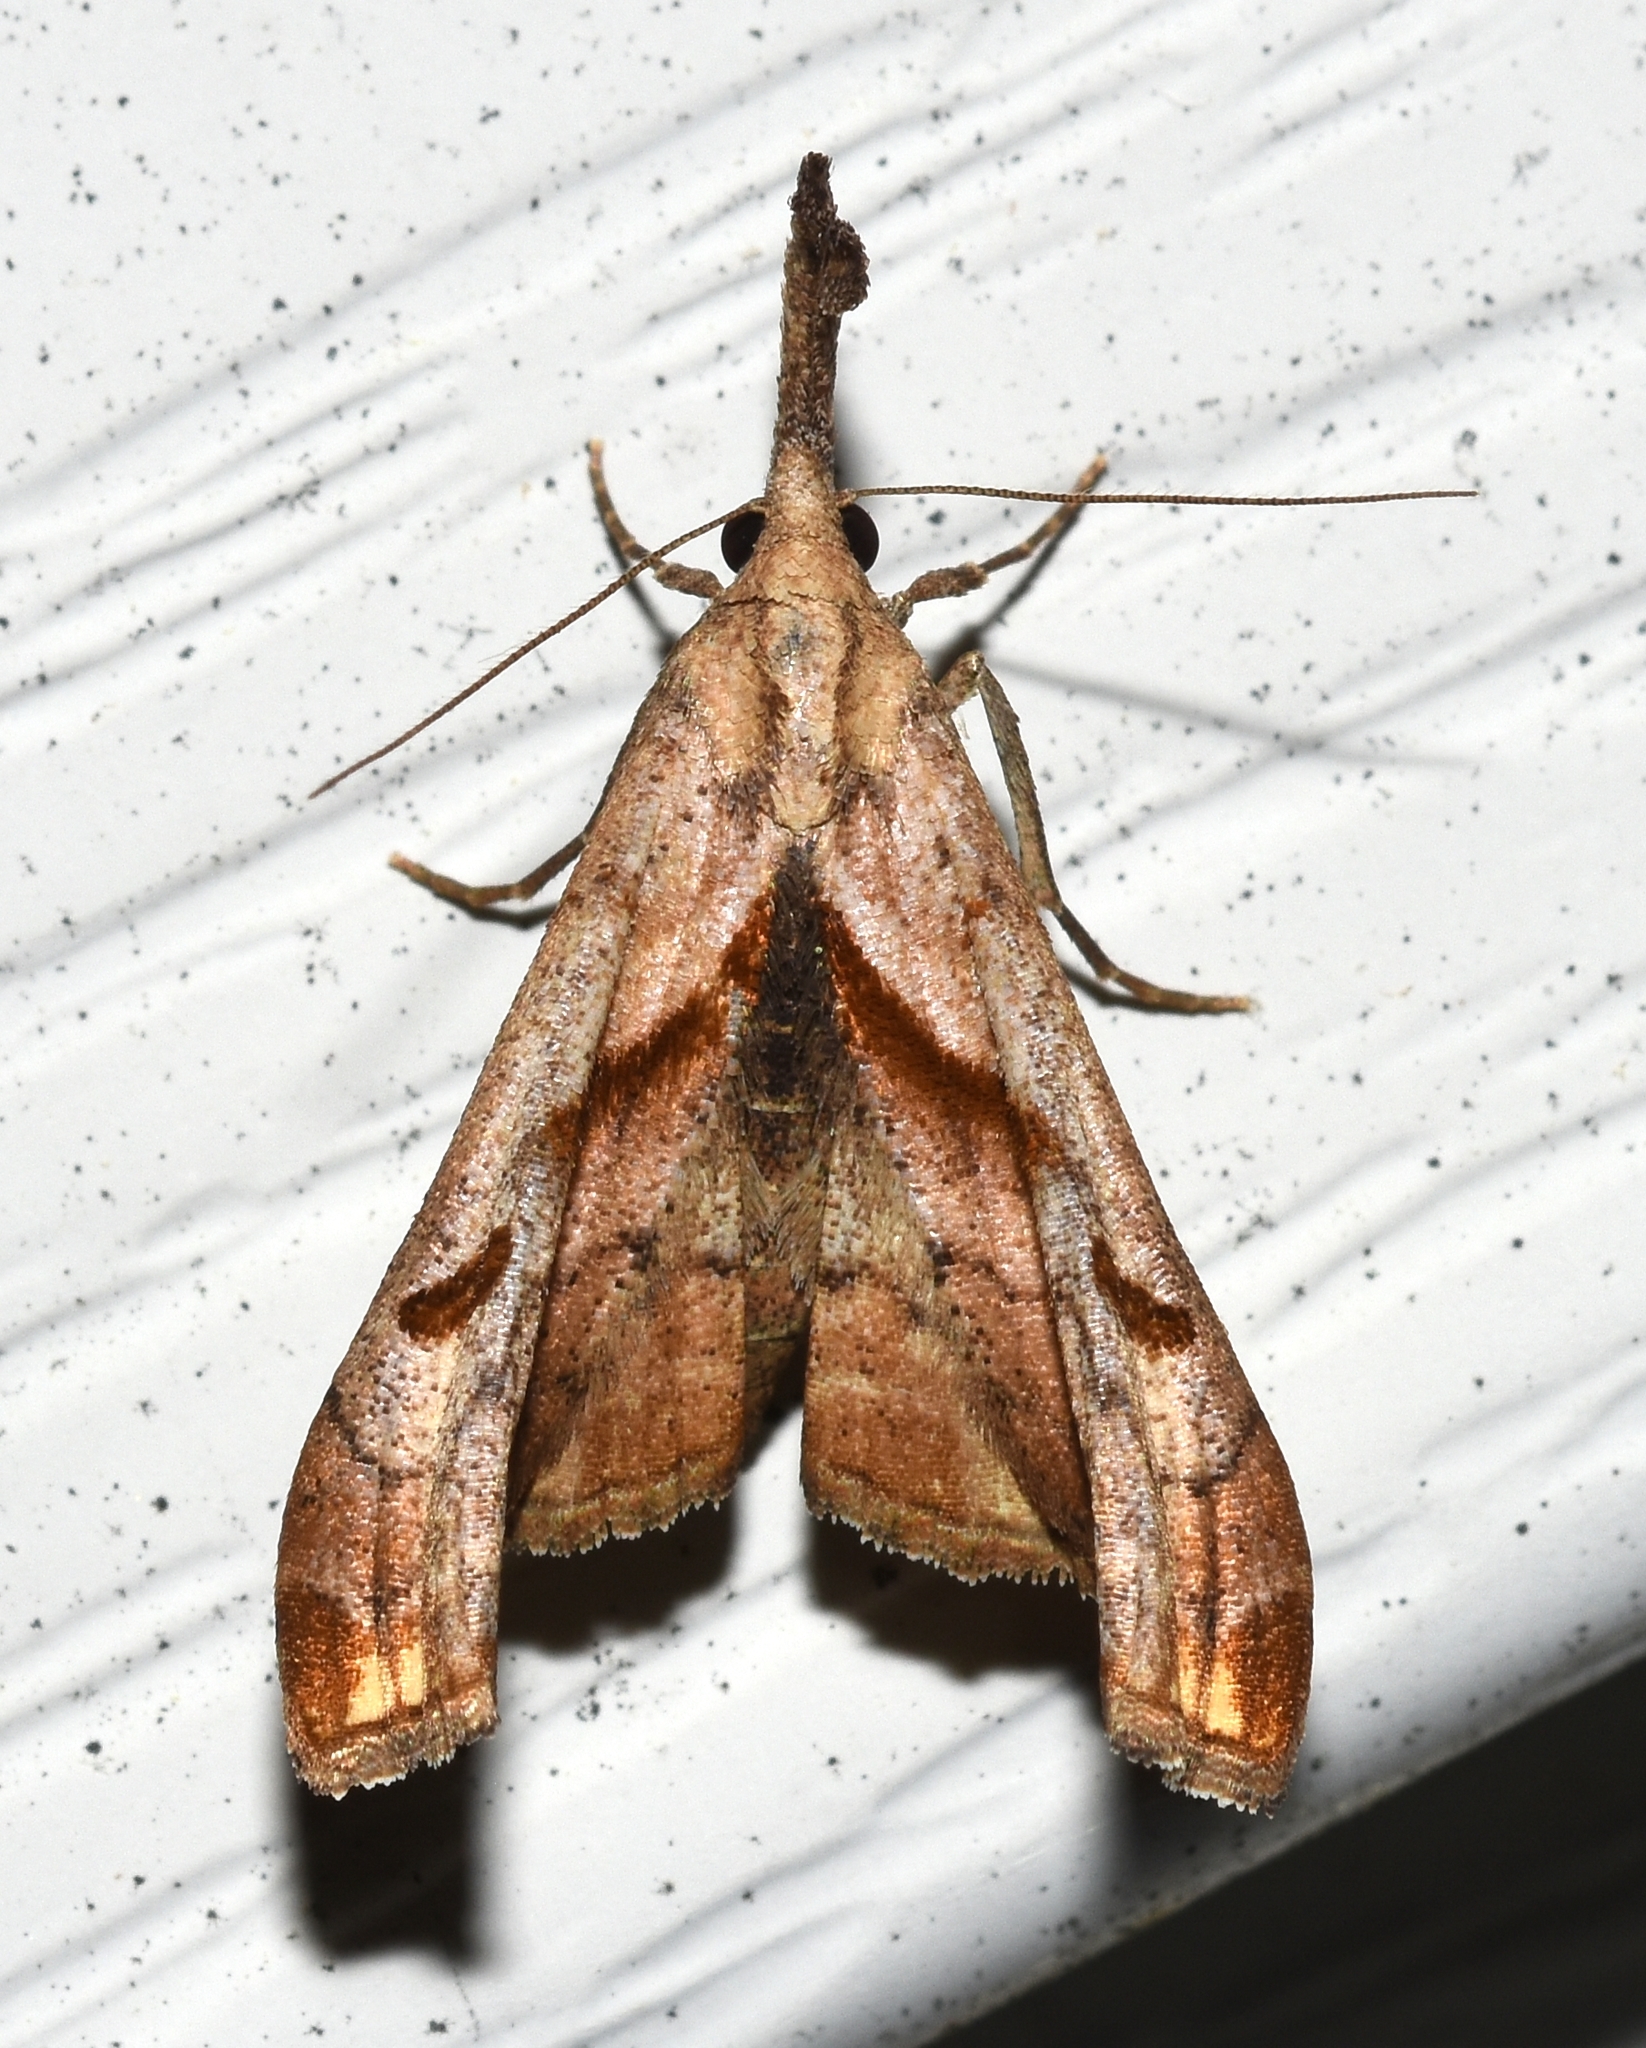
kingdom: Animalia
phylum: Arthropoda
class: Insecta
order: Lepidoptera
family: Erebidae
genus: Palthis
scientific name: Palthis angulalis
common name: Dark-spotted palthis moth
